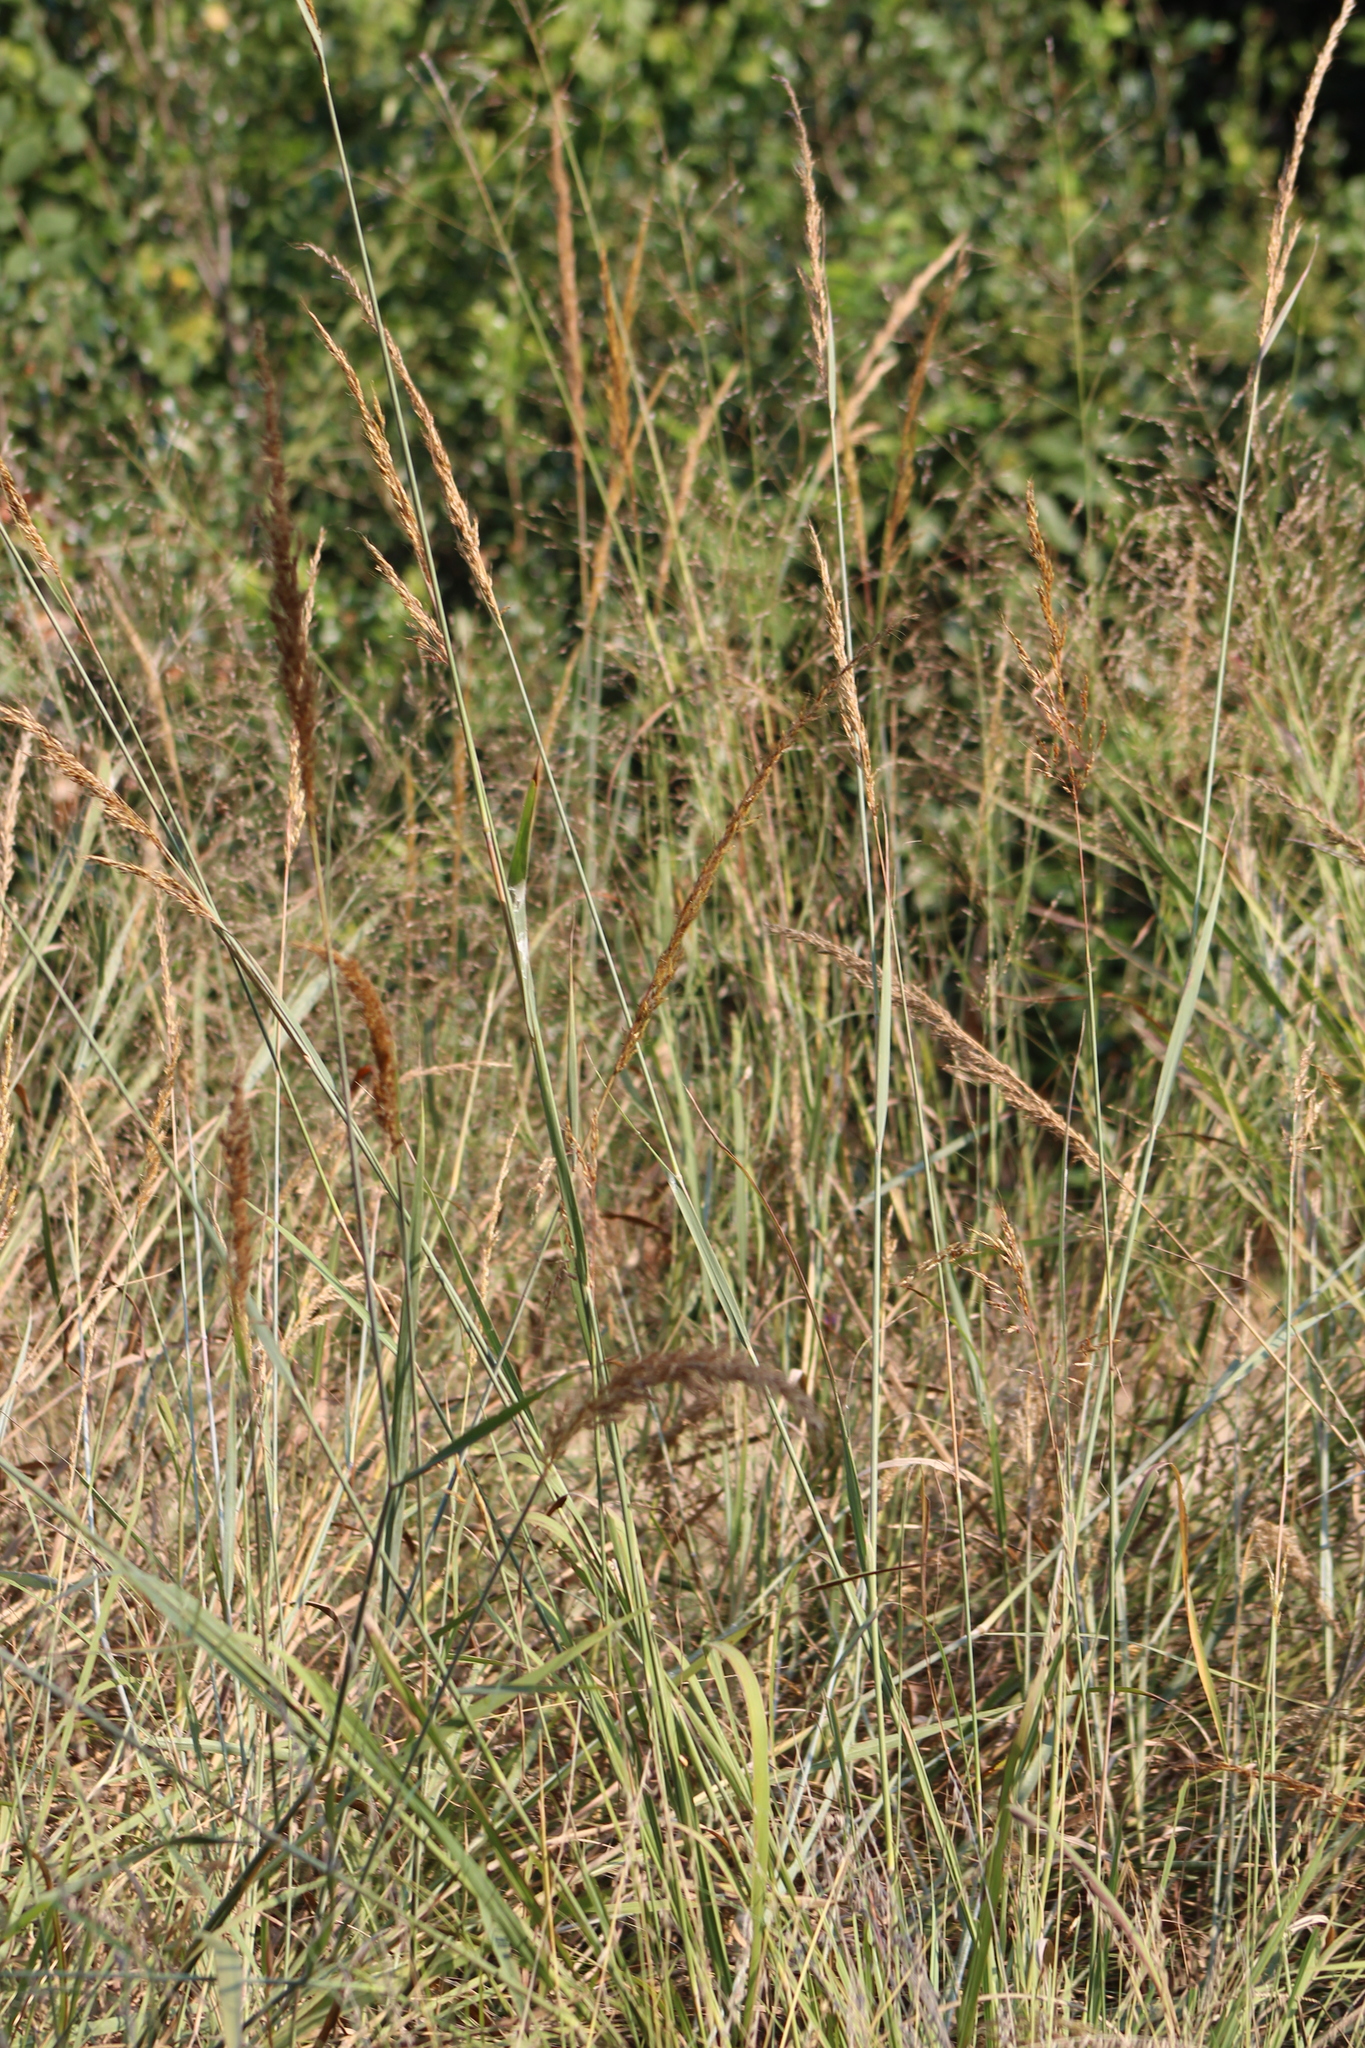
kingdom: Plantae
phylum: Tracheophyta
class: Liliopsida
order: Poales
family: Poaceae
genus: Sorghastrum
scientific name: Sorghastrum nutans
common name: Indian grass
